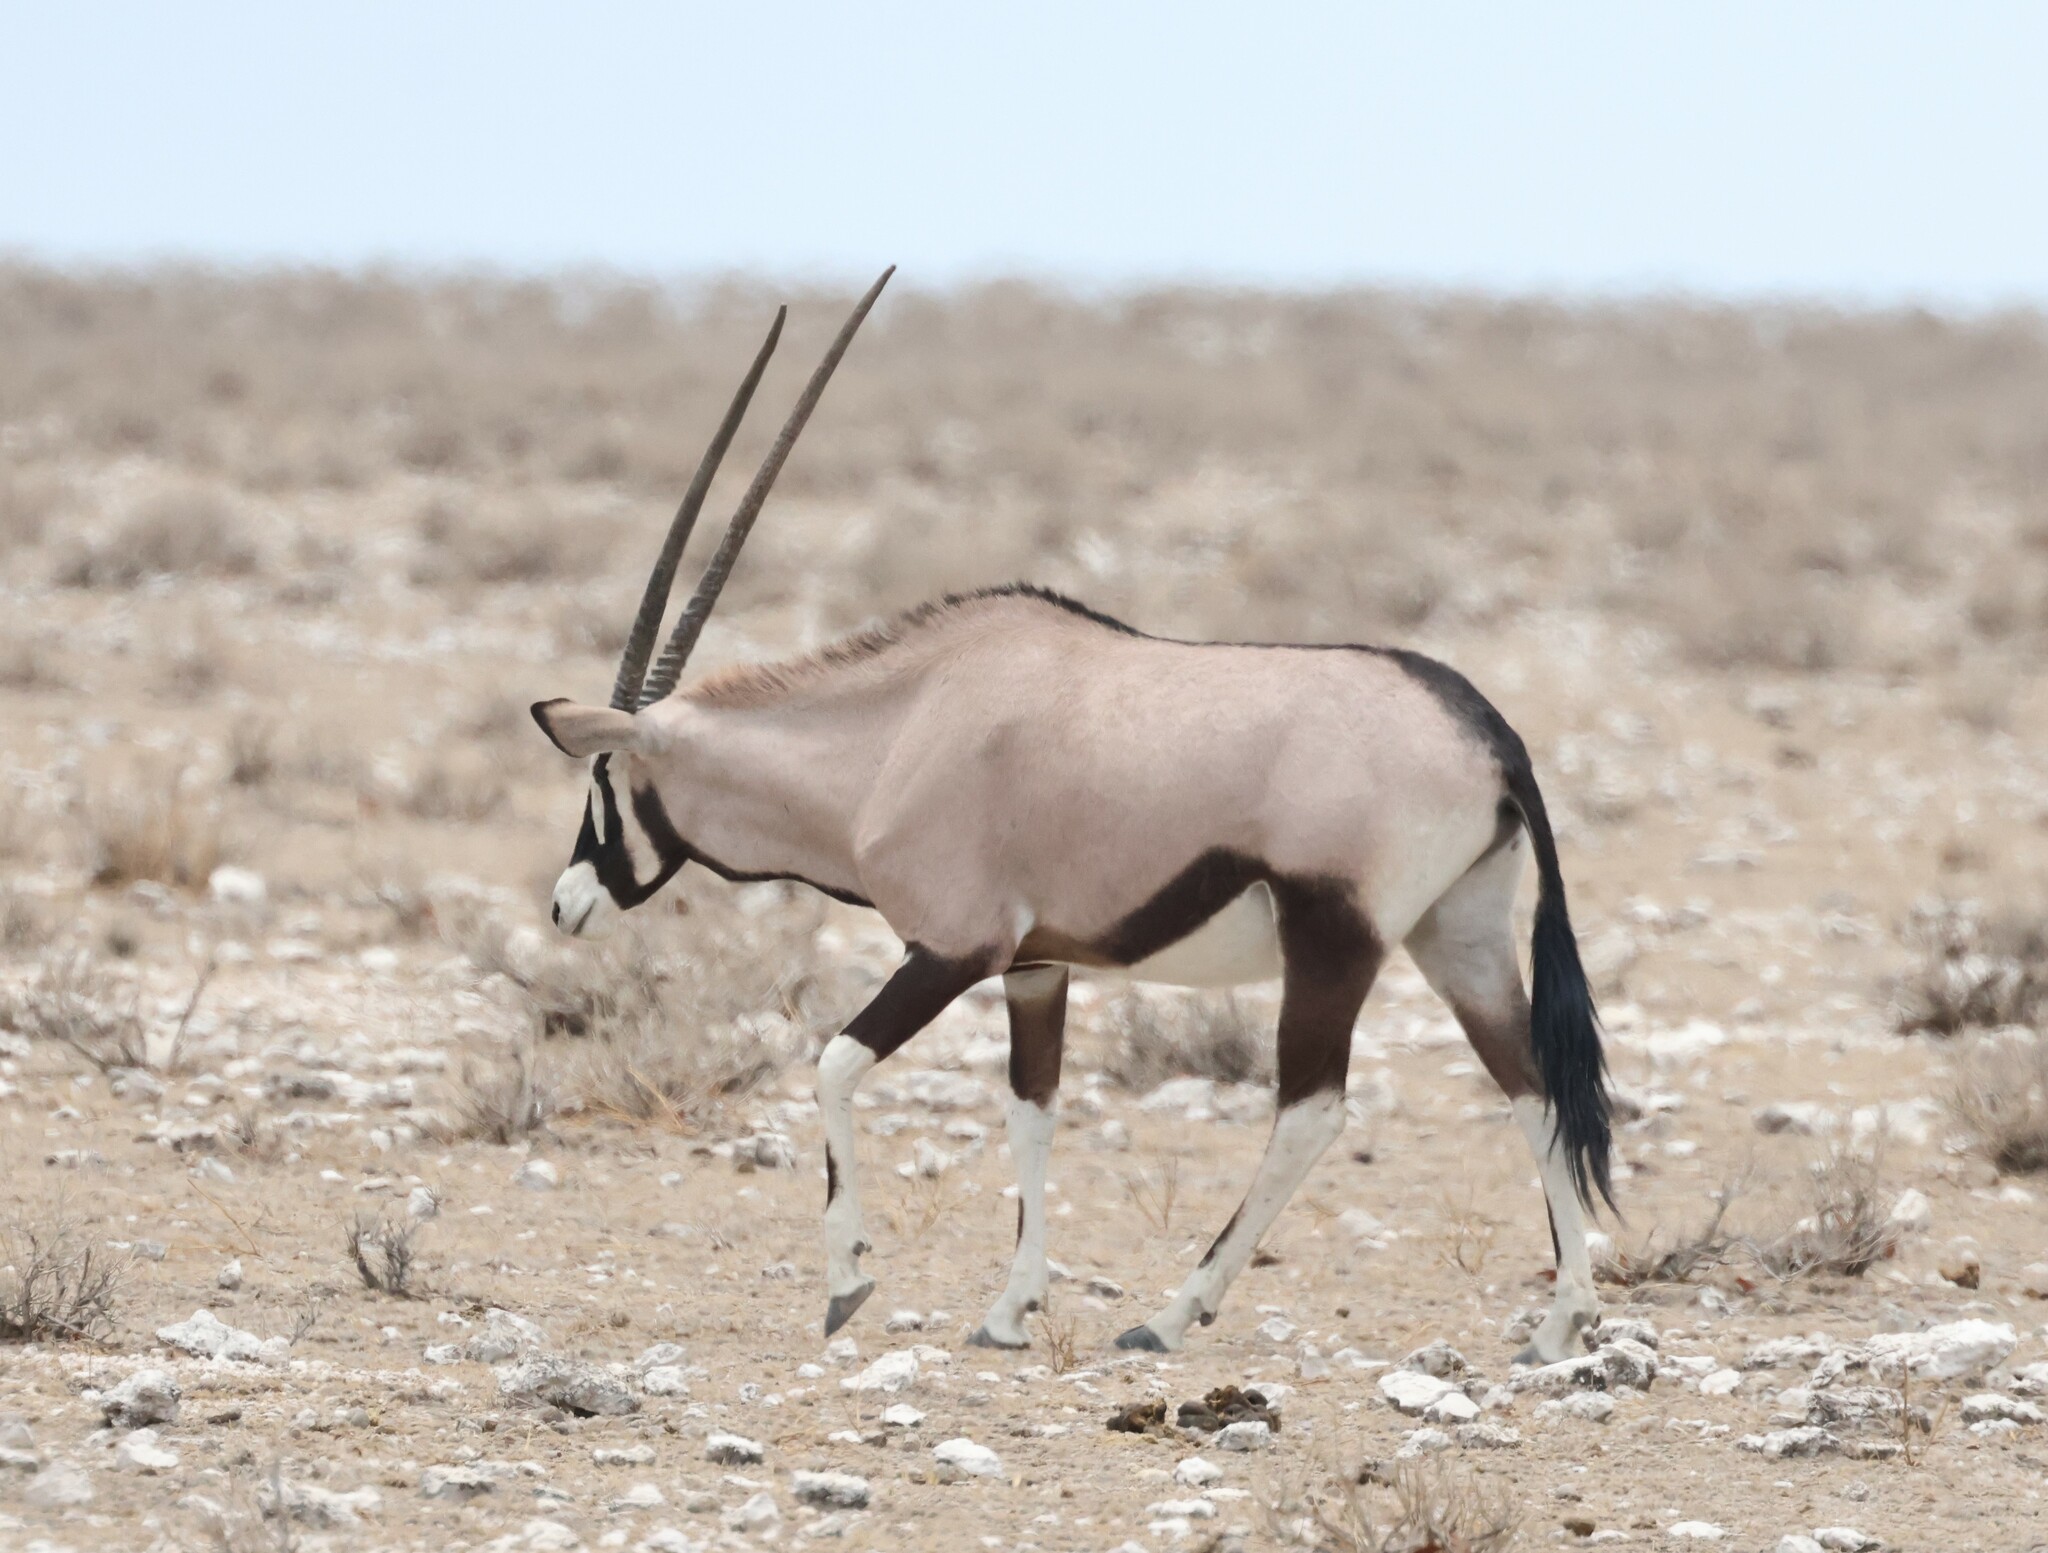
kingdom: Animalia
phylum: Chordata
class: Mammalia
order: Artiodactyla
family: Bovidae
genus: Oryx
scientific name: Oryx gazella
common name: Gemsbok
